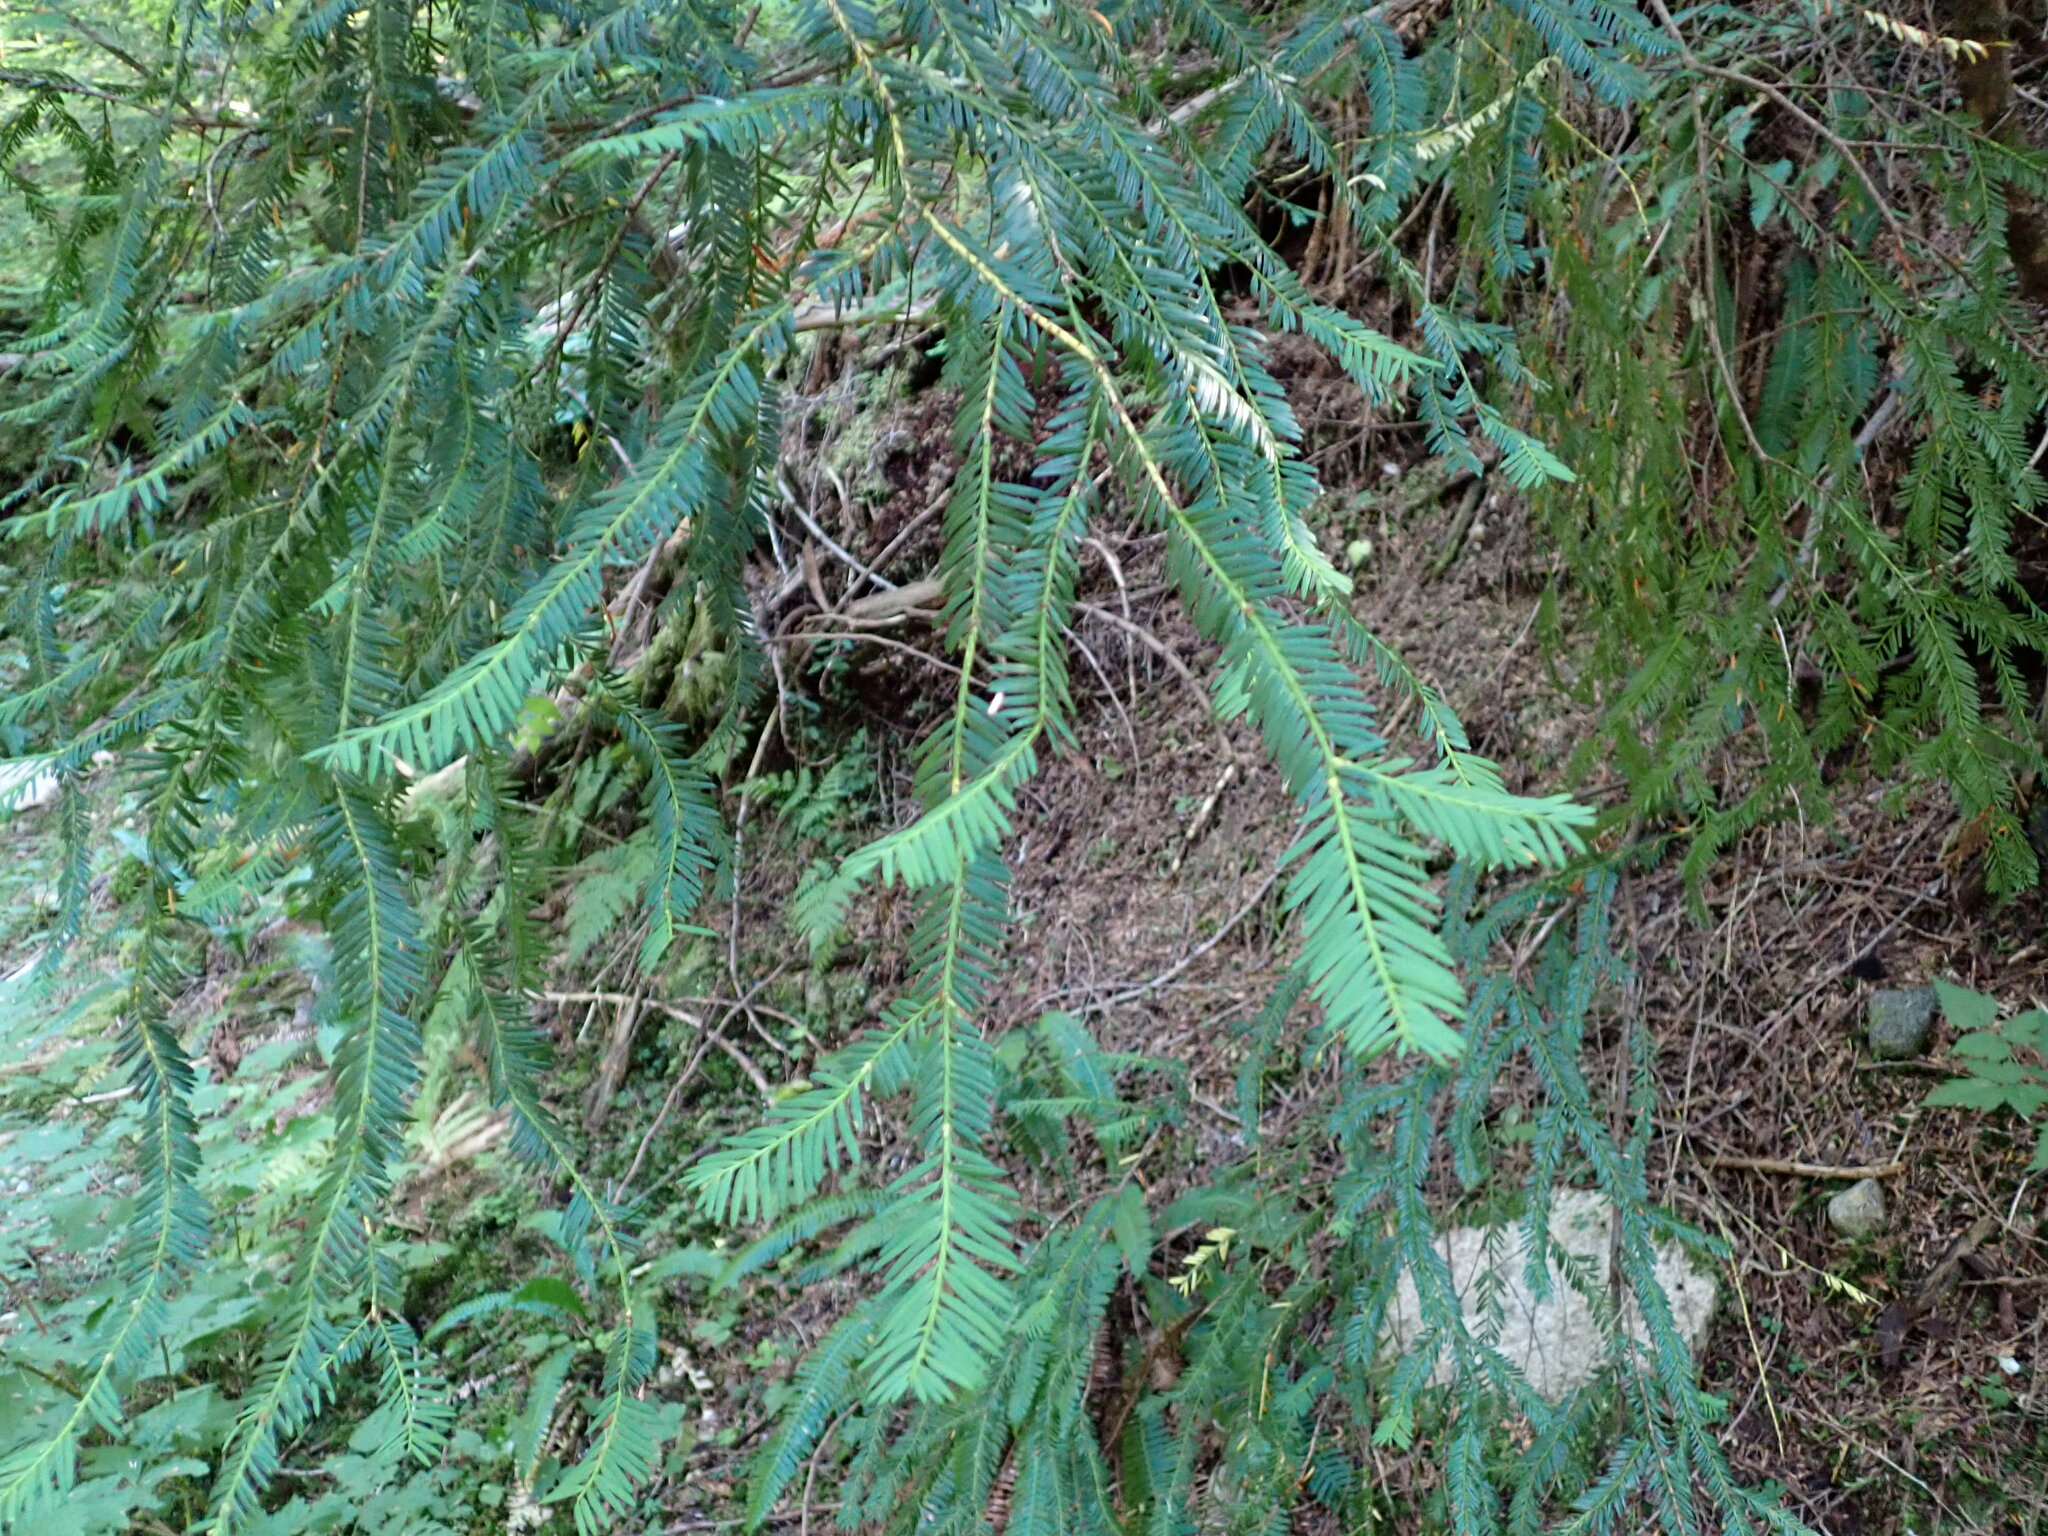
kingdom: Plantae
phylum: Tracheophyta
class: Pinopsida
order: Pinales
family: Taxaceae
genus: Taxus
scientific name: Taxus brevifolia
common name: Pacific yew
